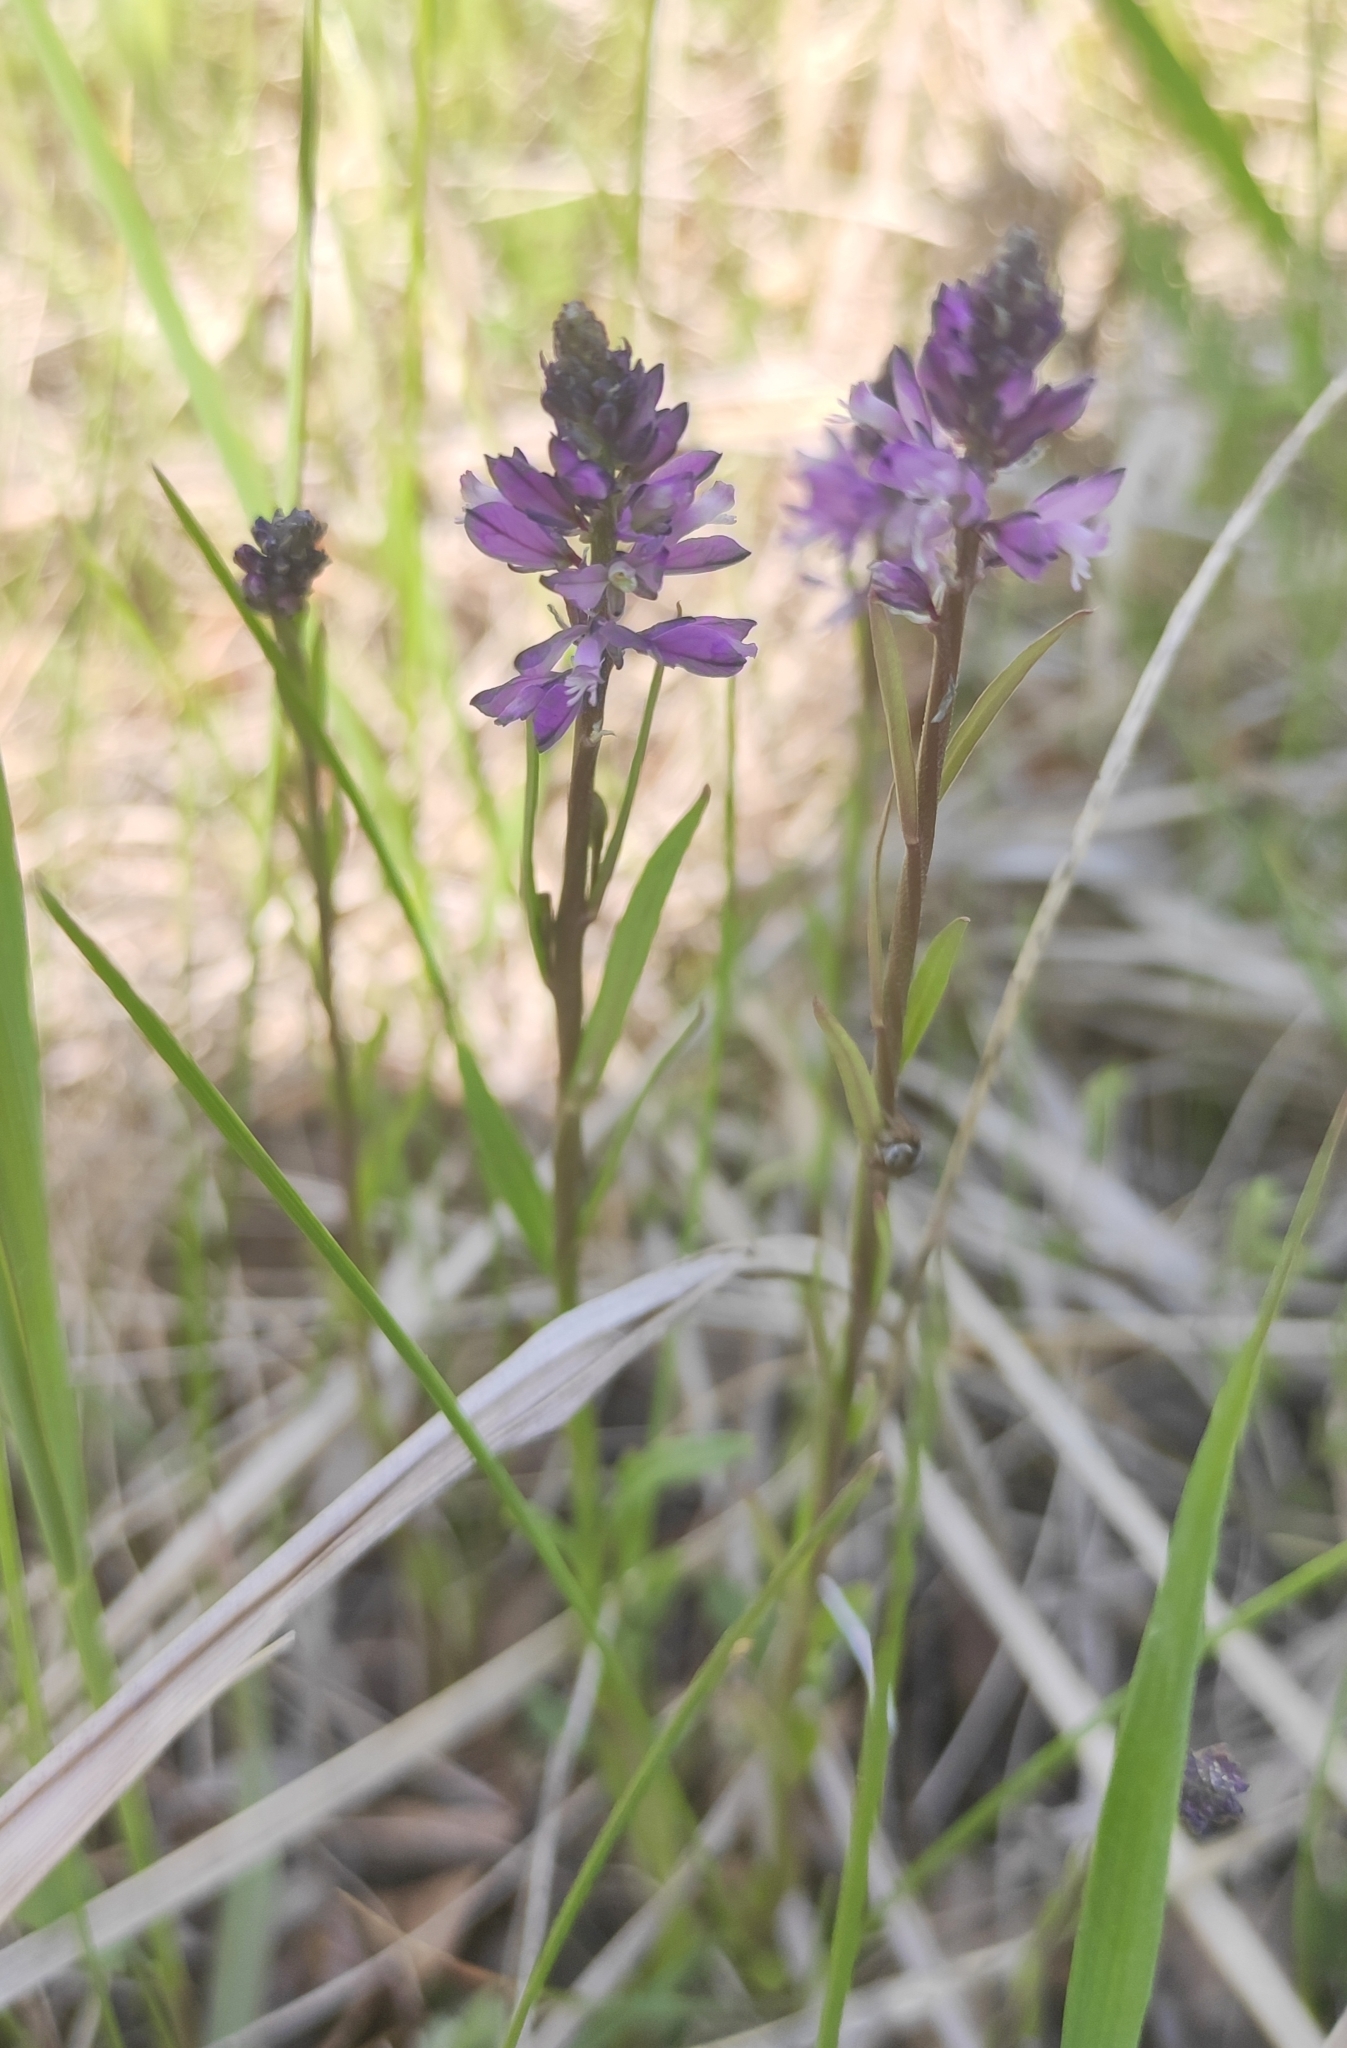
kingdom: Plantae
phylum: Tracheophyta
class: Magnoliopsida
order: Fabales
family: Polygalaceae
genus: Polygala
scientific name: Polygala comosa
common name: Tufted milkwort
